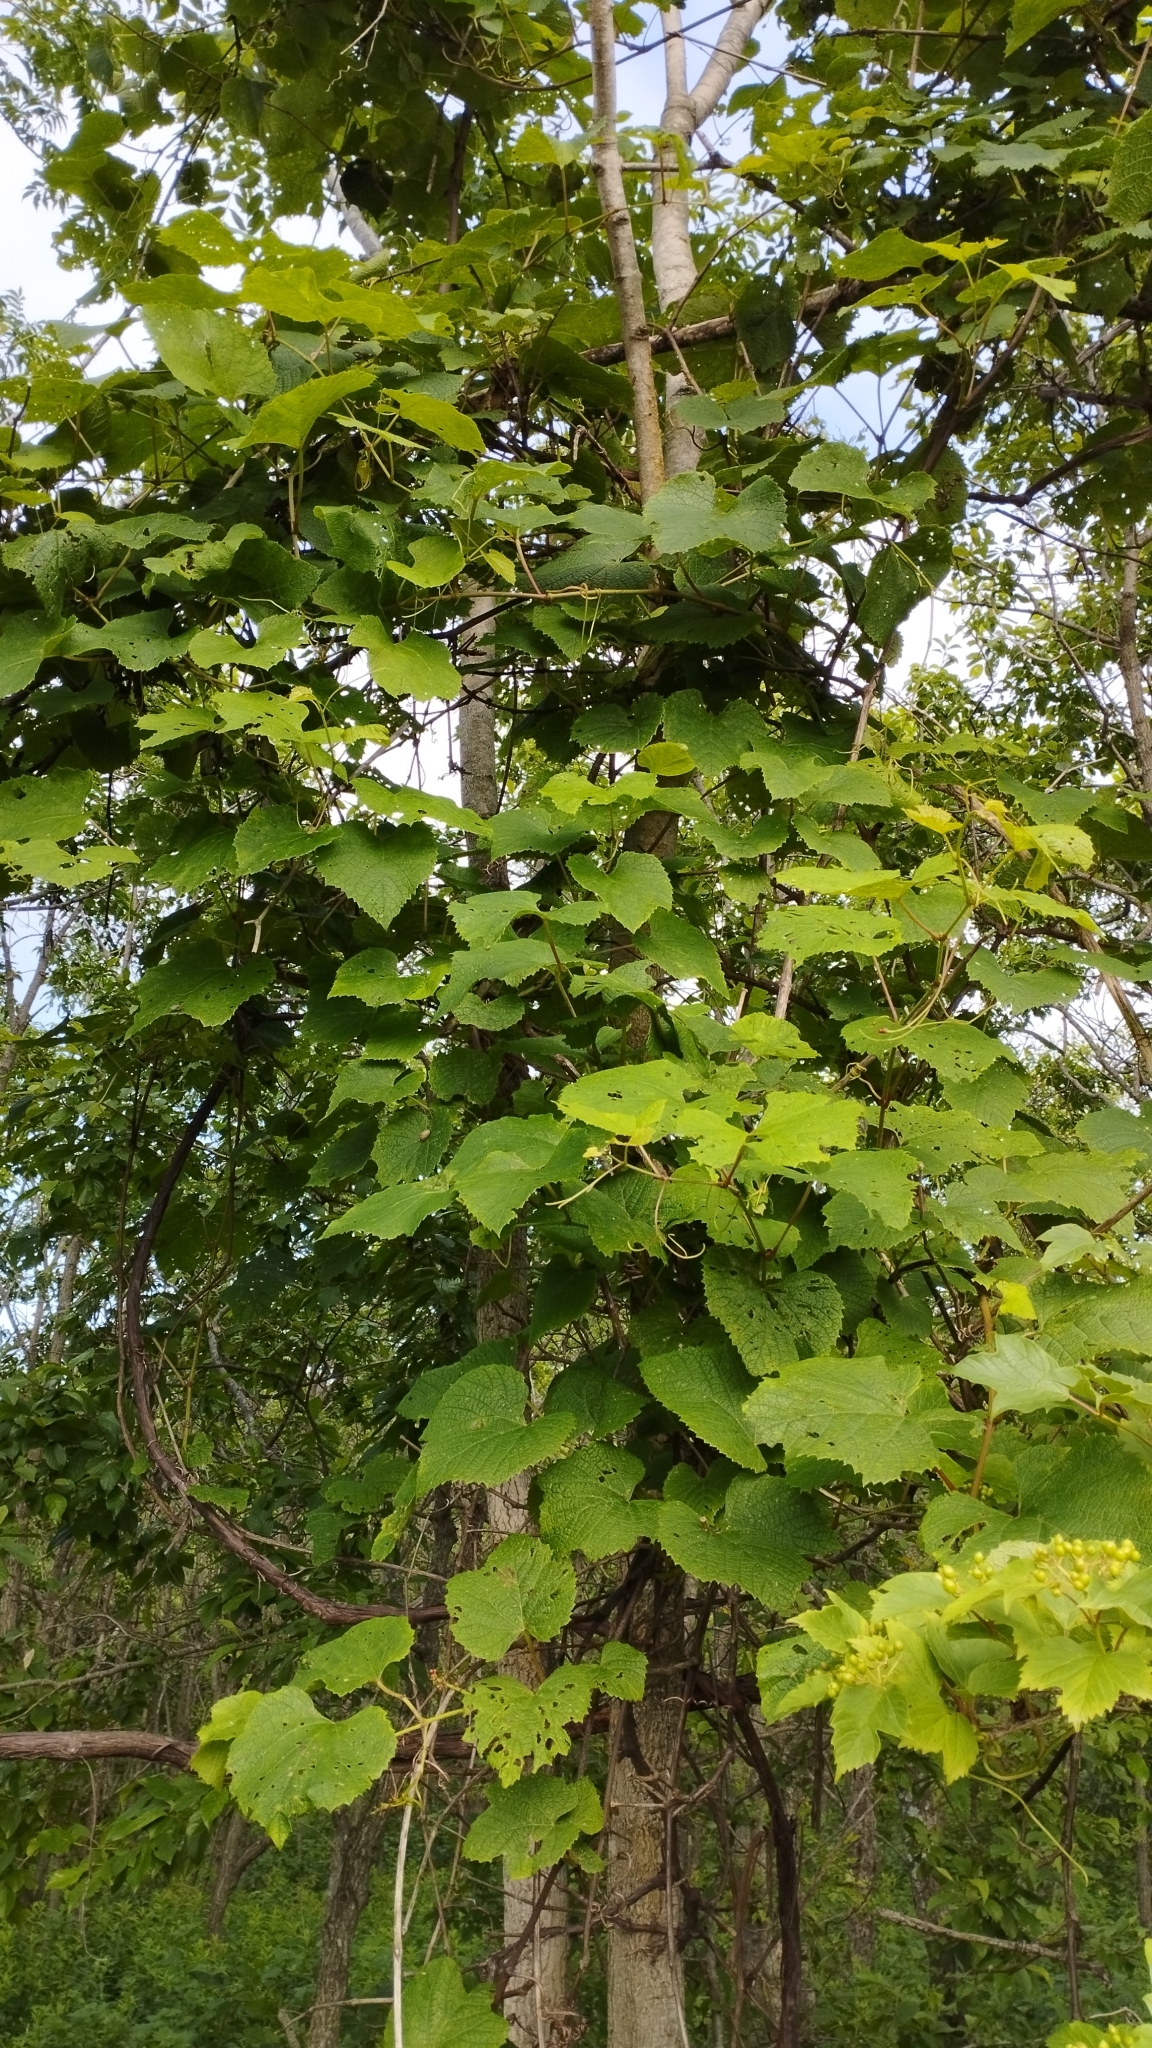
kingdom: Plantae
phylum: Tracheophyta
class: Magnoliopsida
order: Vitales
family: Vitaceae
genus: Vitis
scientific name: Vitis amurensis
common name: Amur grape
